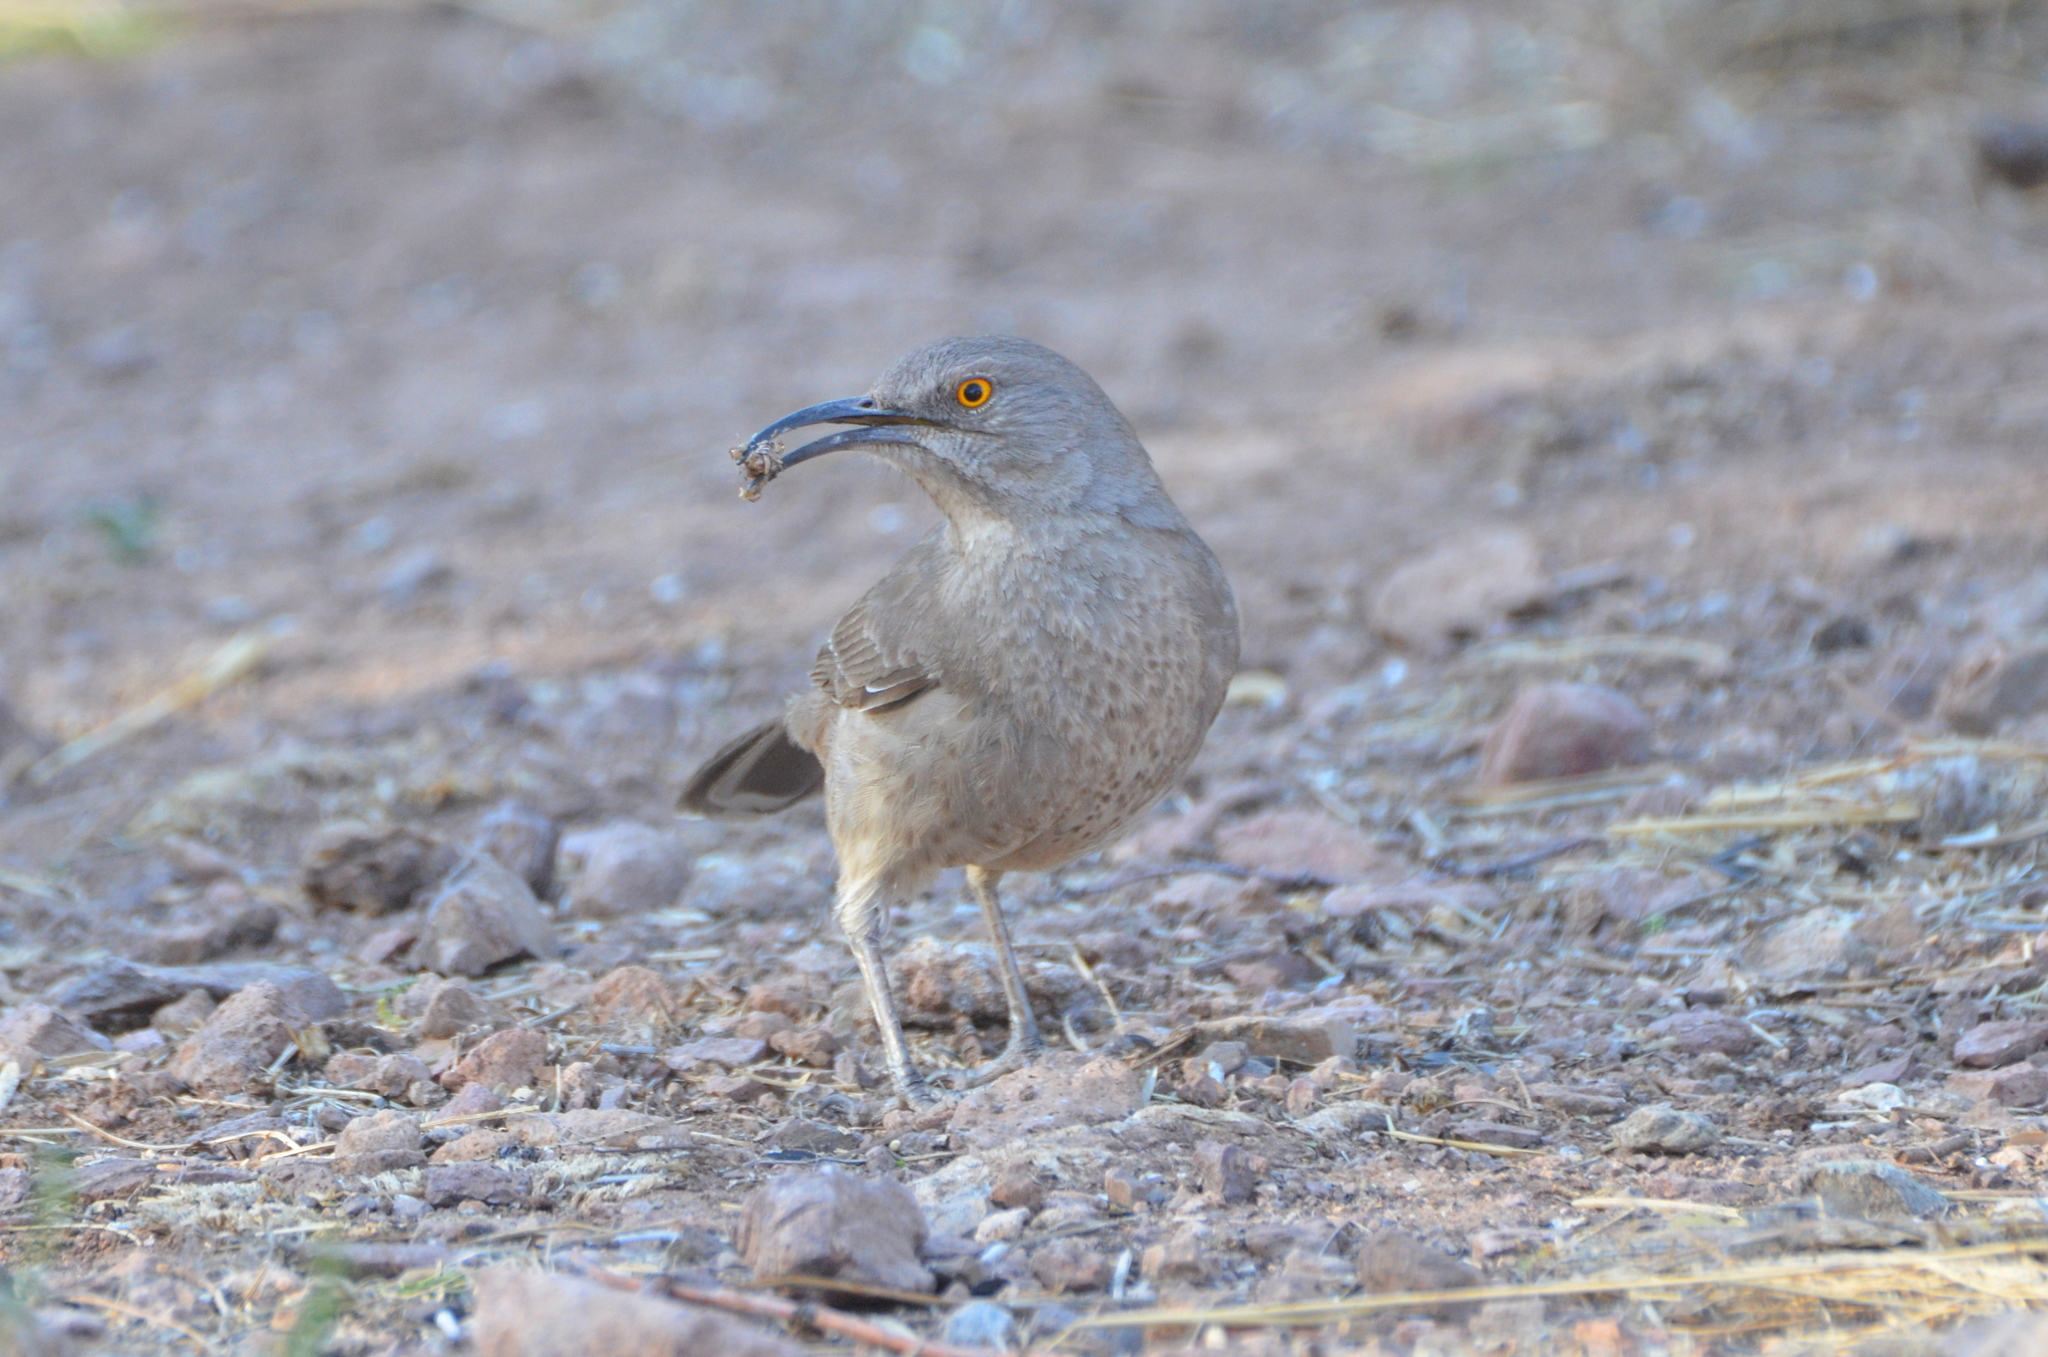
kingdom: Animalia
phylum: Chordata
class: Aves
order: Passeriformes
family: Mimidae
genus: Toxostoma
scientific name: Toxostoma curvirostre
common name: Curve-billed thrasher
